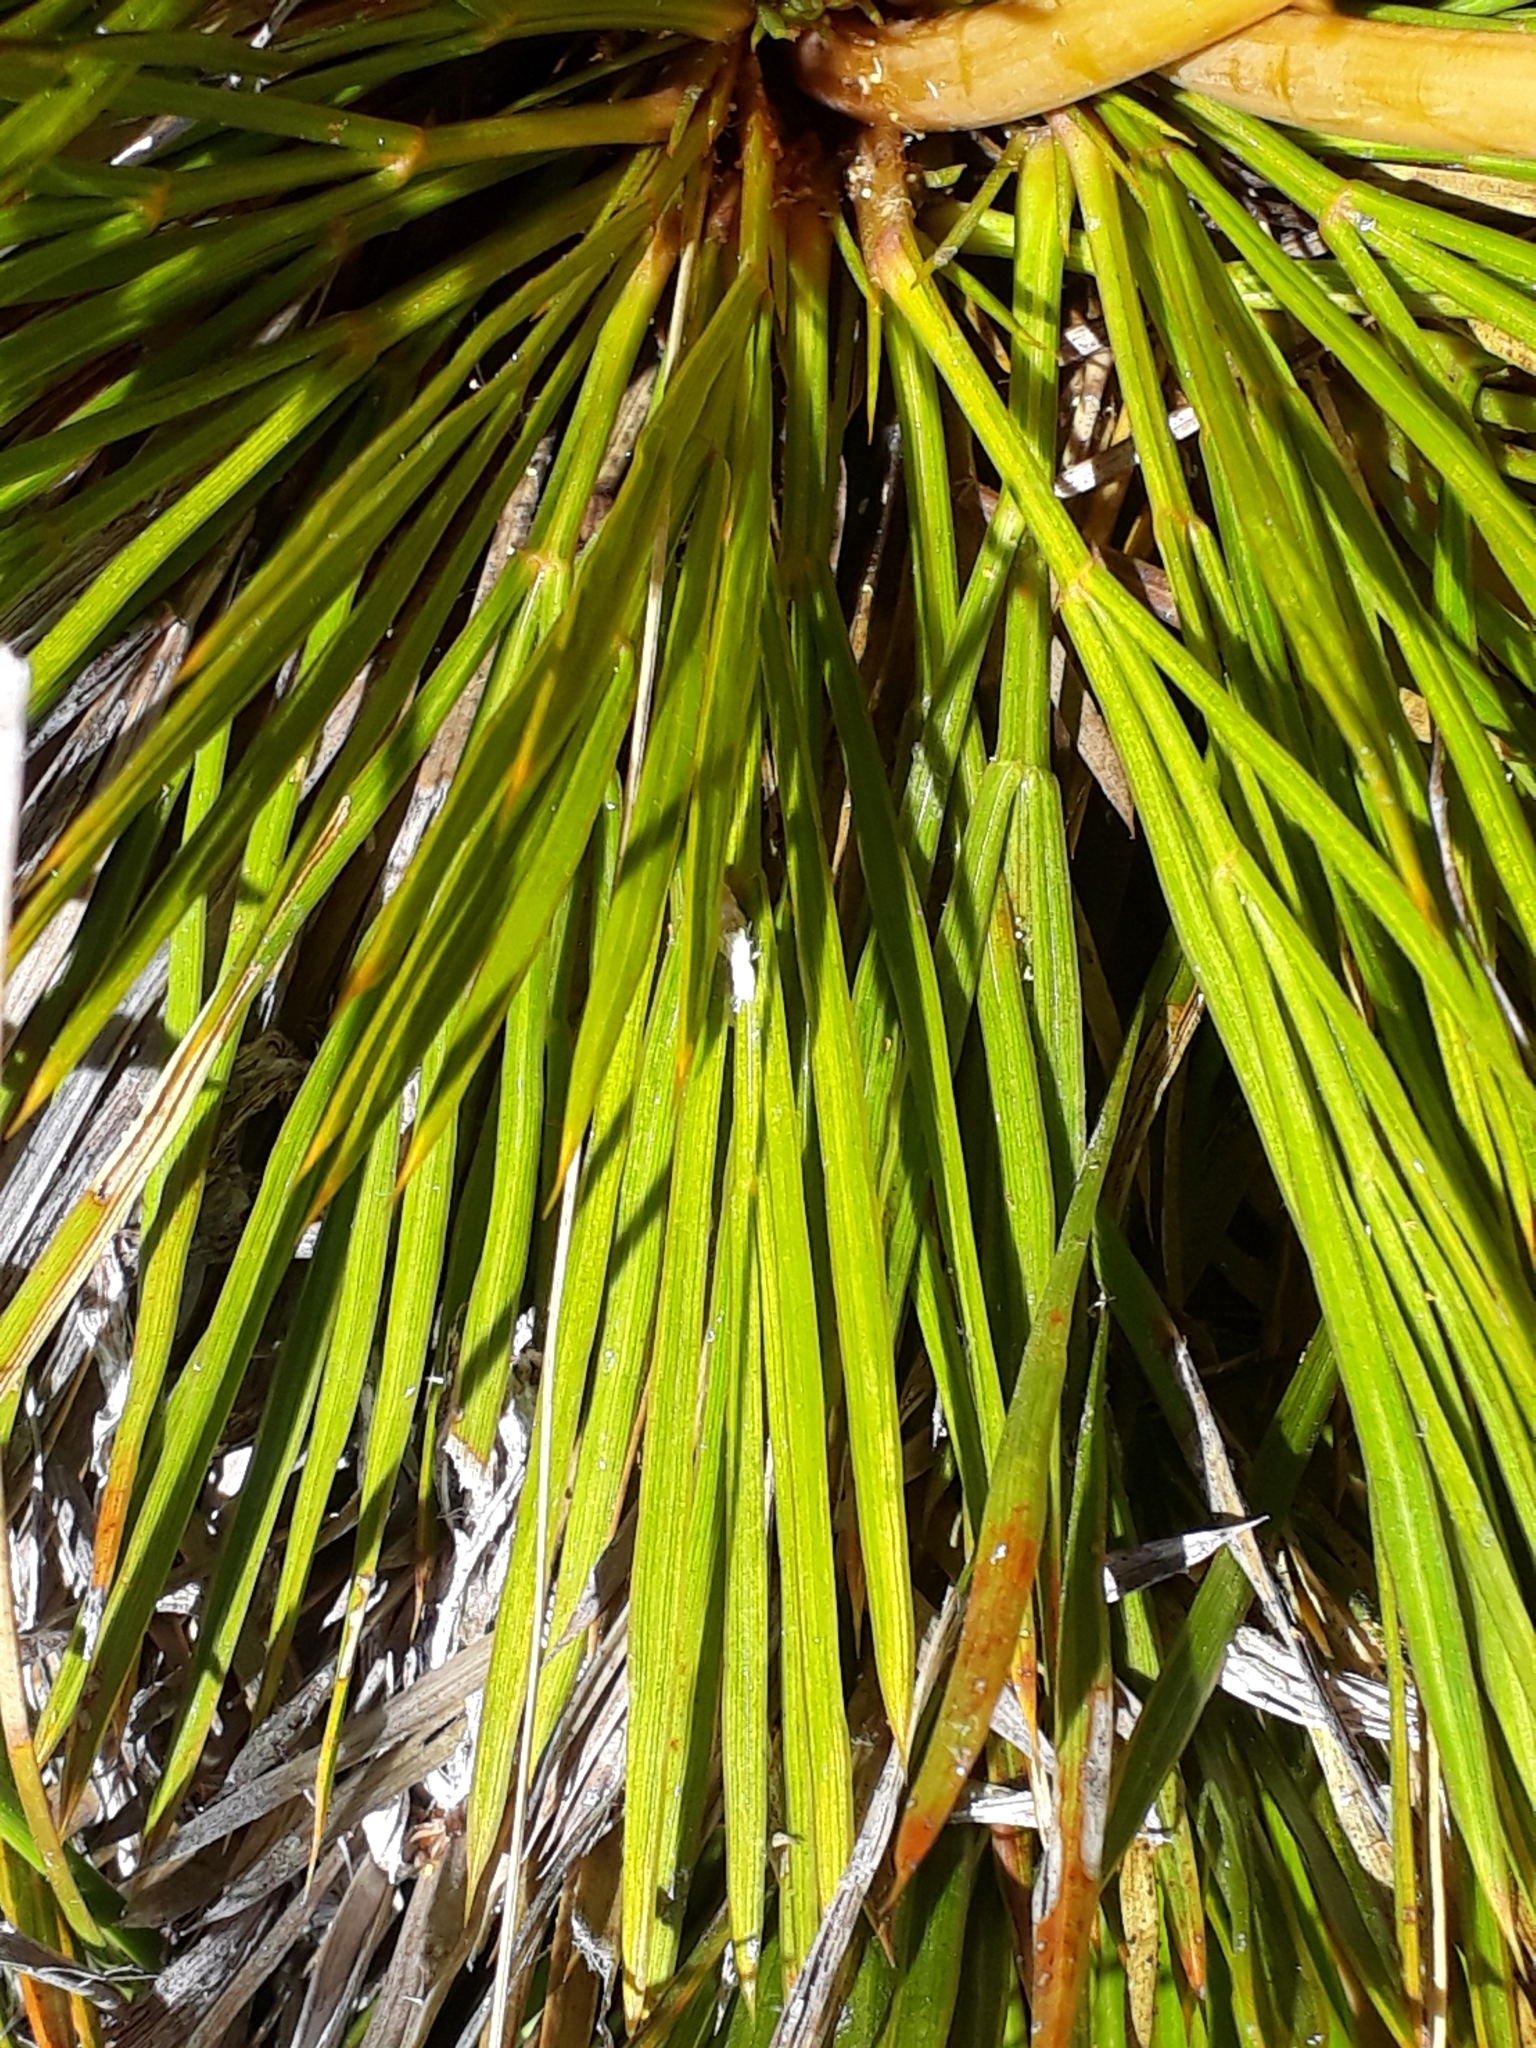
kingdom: Plantae
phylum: Tracheophyta
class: Magnoliopsida
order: Apiales
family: Apiaceae
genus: Aciphylla
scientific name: Aciphylla montana
